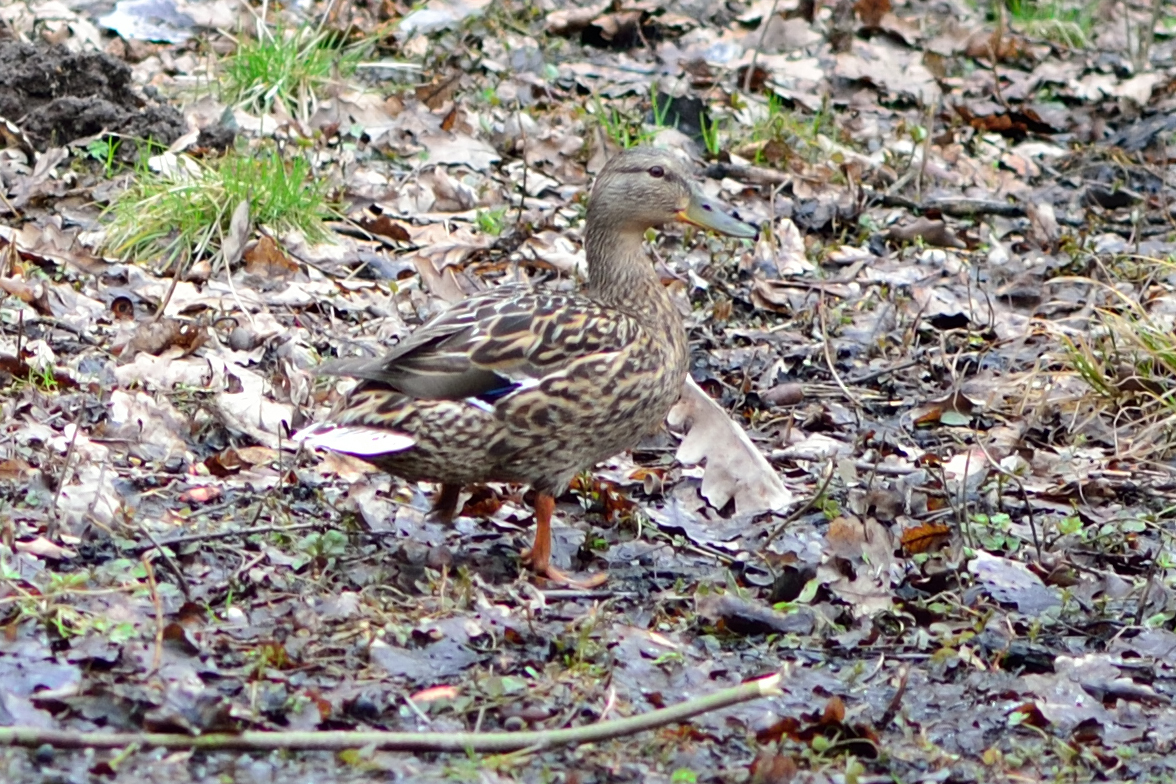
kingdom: Animalia
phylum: Chordata
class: Aves
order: Anseriformes
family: Anatidae
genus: Anas
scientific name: Anas platyrhynchos
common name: Mallard
